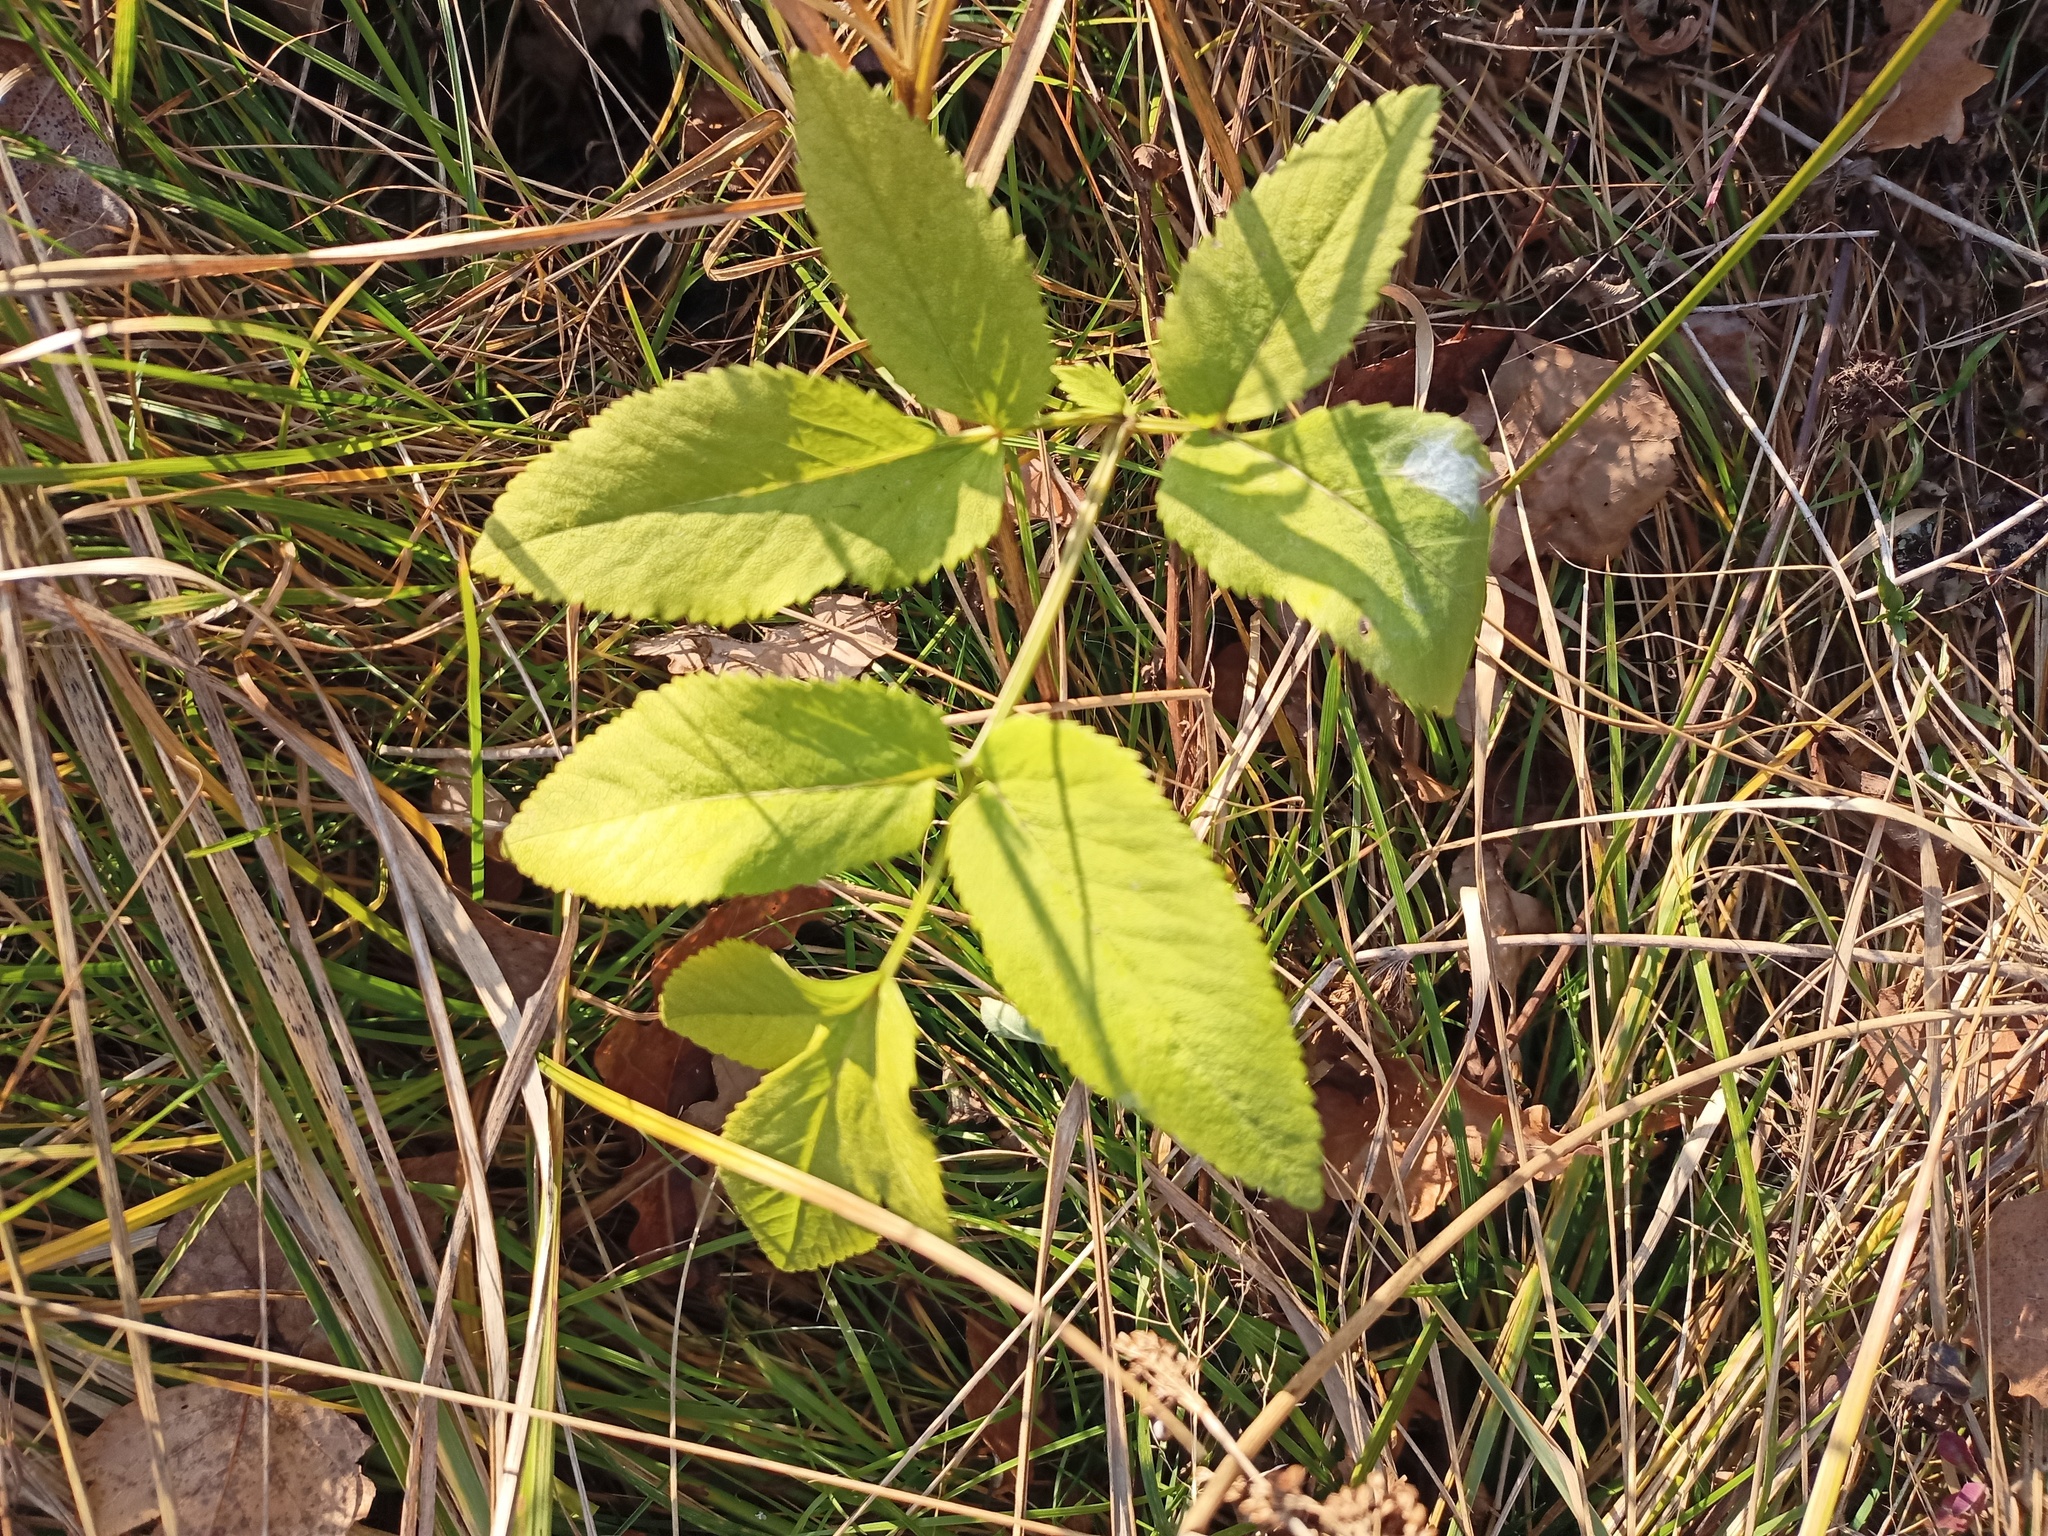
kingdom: Plantae
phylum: Tracheophyta
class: Magnoliopsida
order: Apiales
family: Apiaceae
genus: Angelica
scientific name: Angelica sylvestris
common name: Wild angelica
